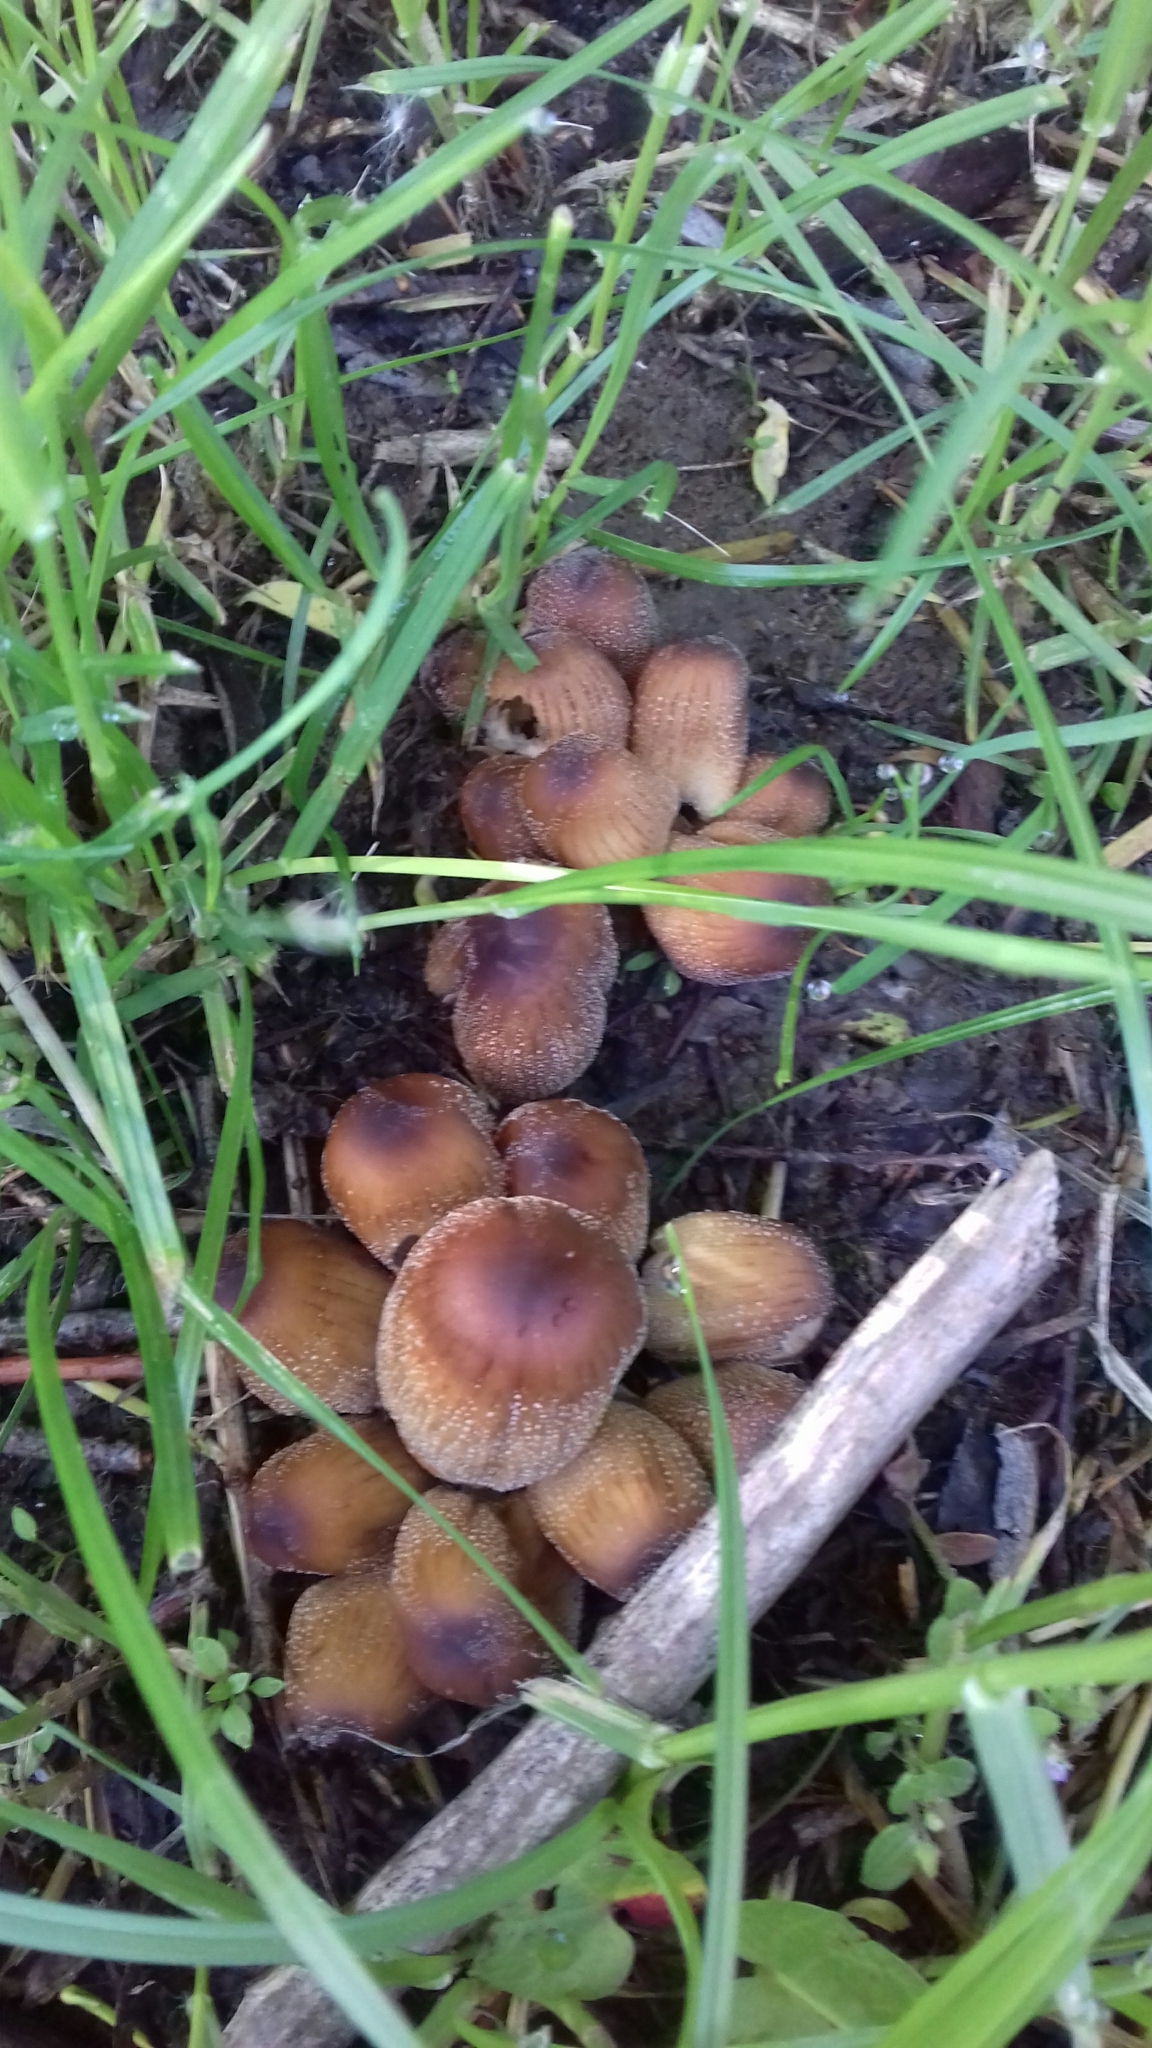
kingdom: Fungi
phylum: Basidiomycota
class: Agaricomycetes
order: Agaricales
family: Psathyrellaceae
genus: Coprinellus
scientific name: Coprinellus micaceus
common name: Glistening ink-cap
